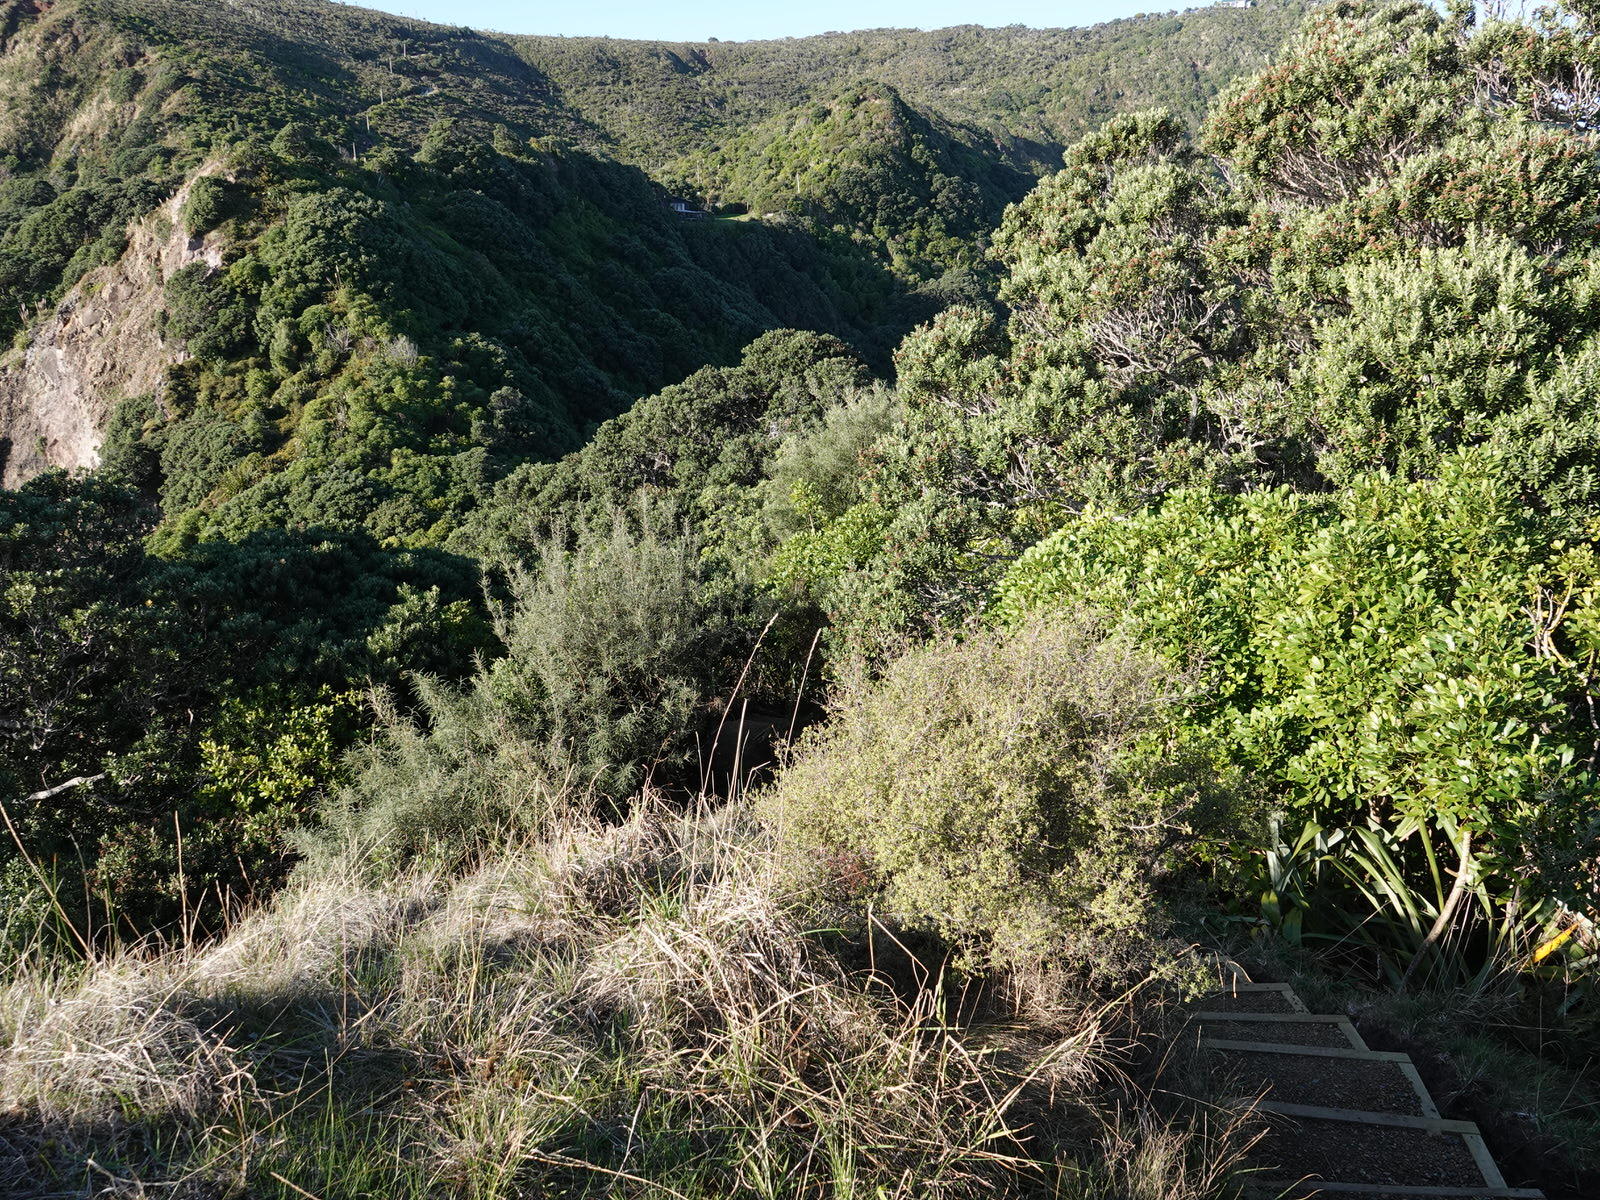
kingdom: Plantae
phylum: Tracheophyta
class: Magnoliopsida
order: Ericales
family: Ericaceae
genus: Leucopogon
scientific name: Leucopogon fasciculatus
